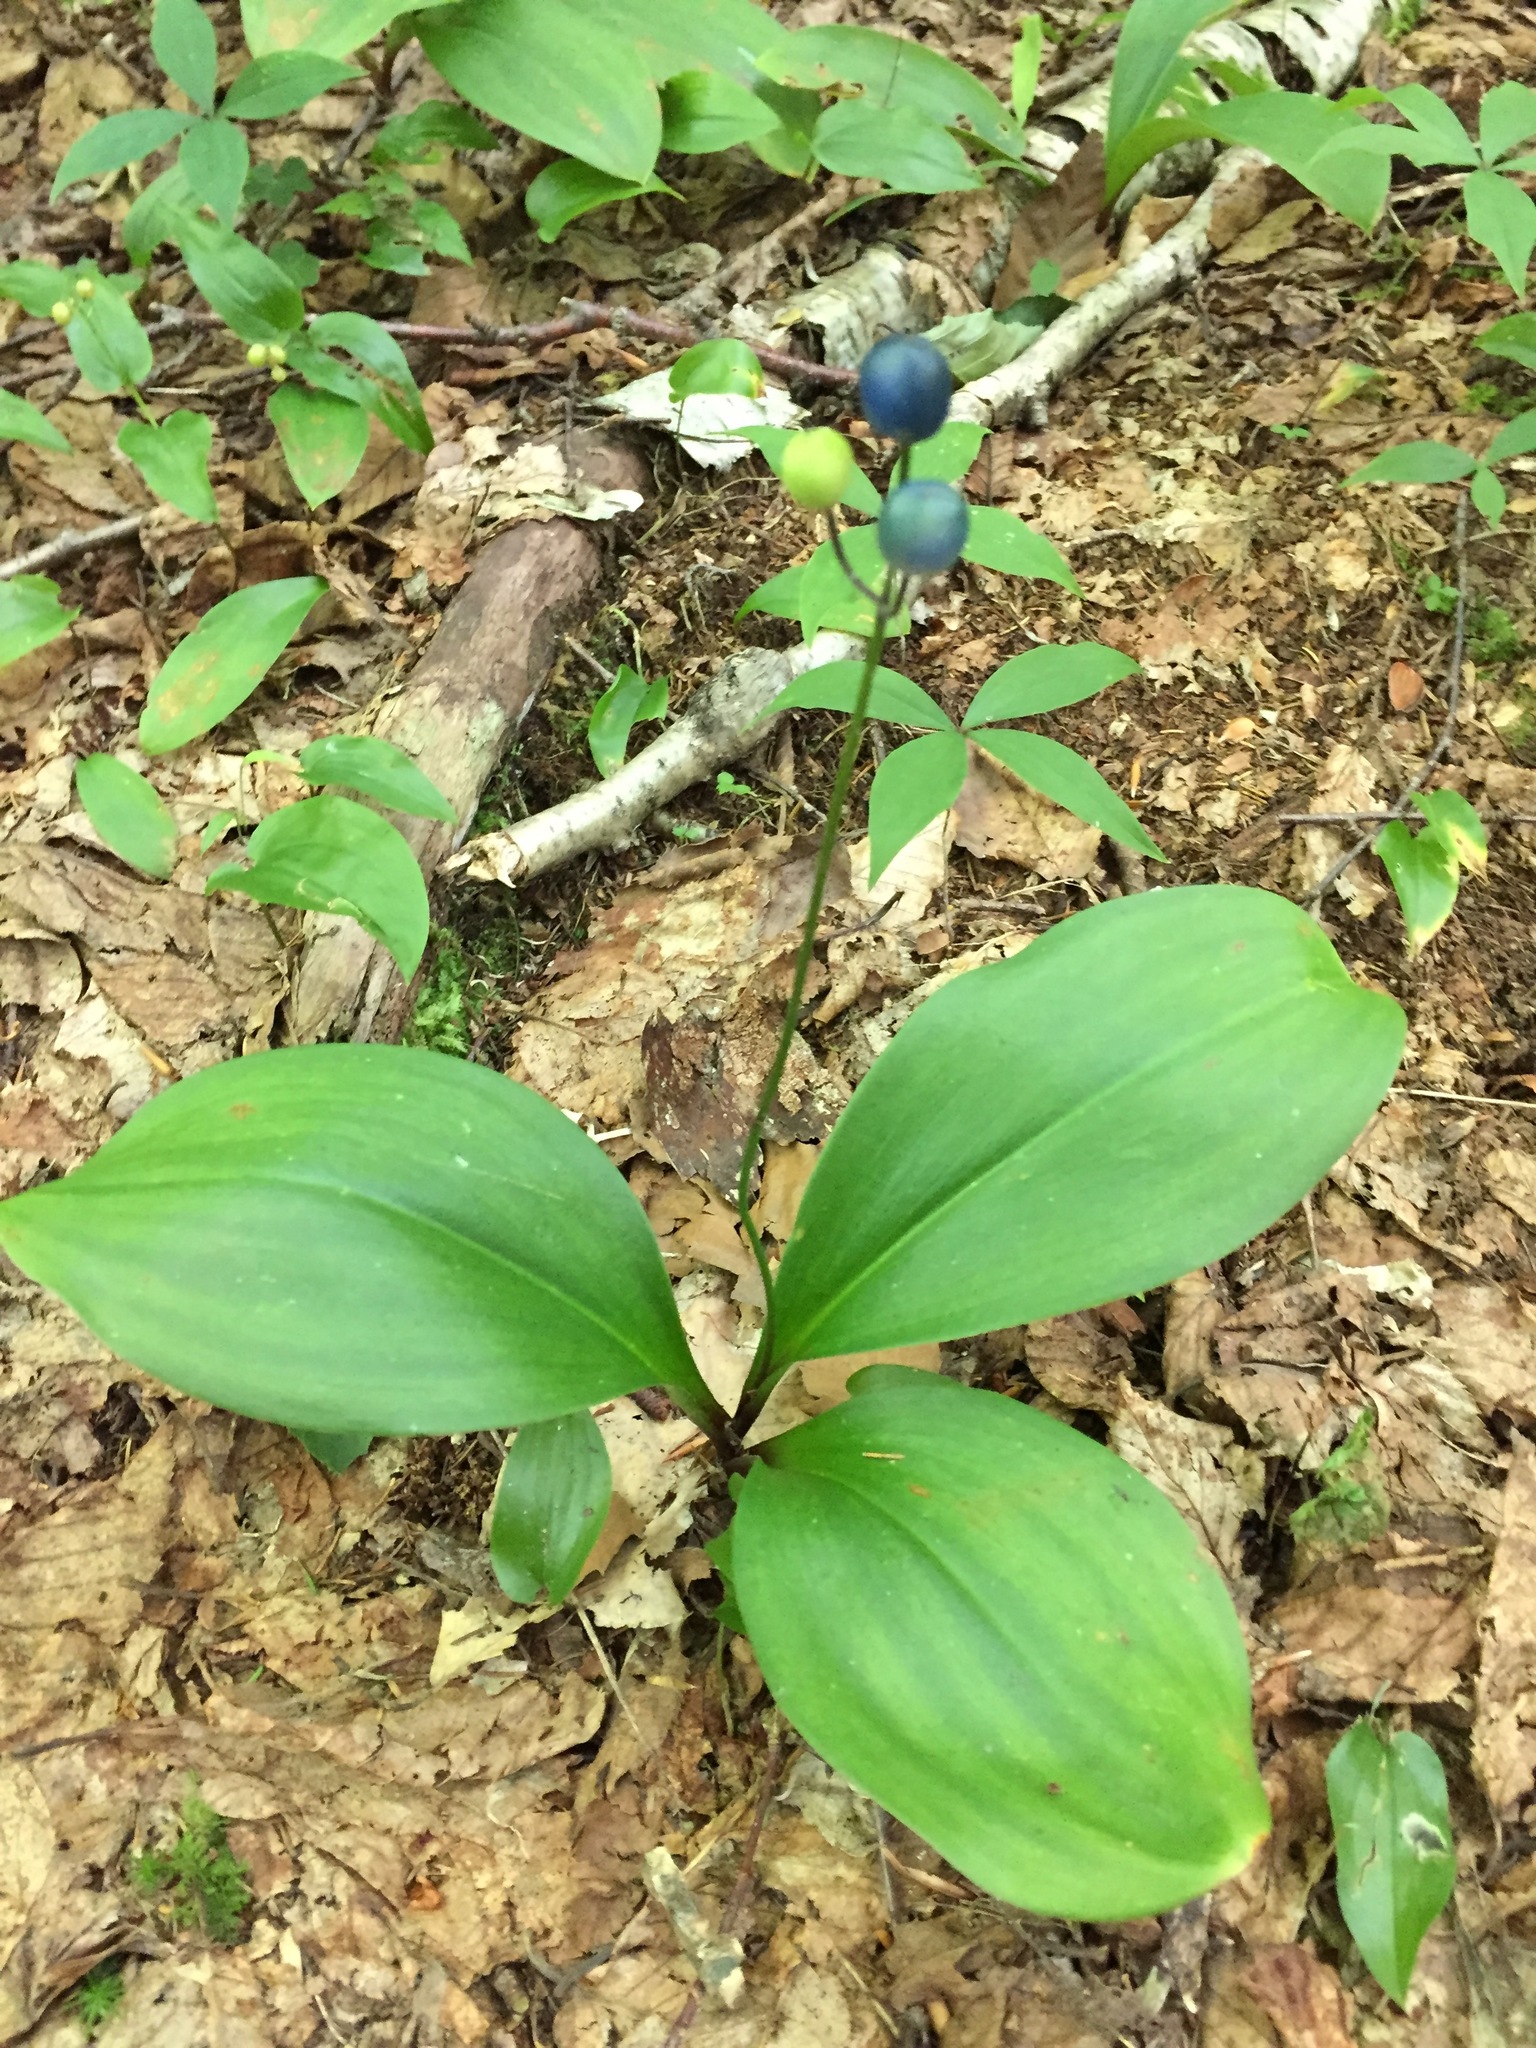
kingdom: Plantae
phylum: Tracheophyta
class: Liliopsida
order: Liliales
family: Liliaceae
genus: Clintonia
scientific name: Clintonia borealis
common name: Yellow clintonia
